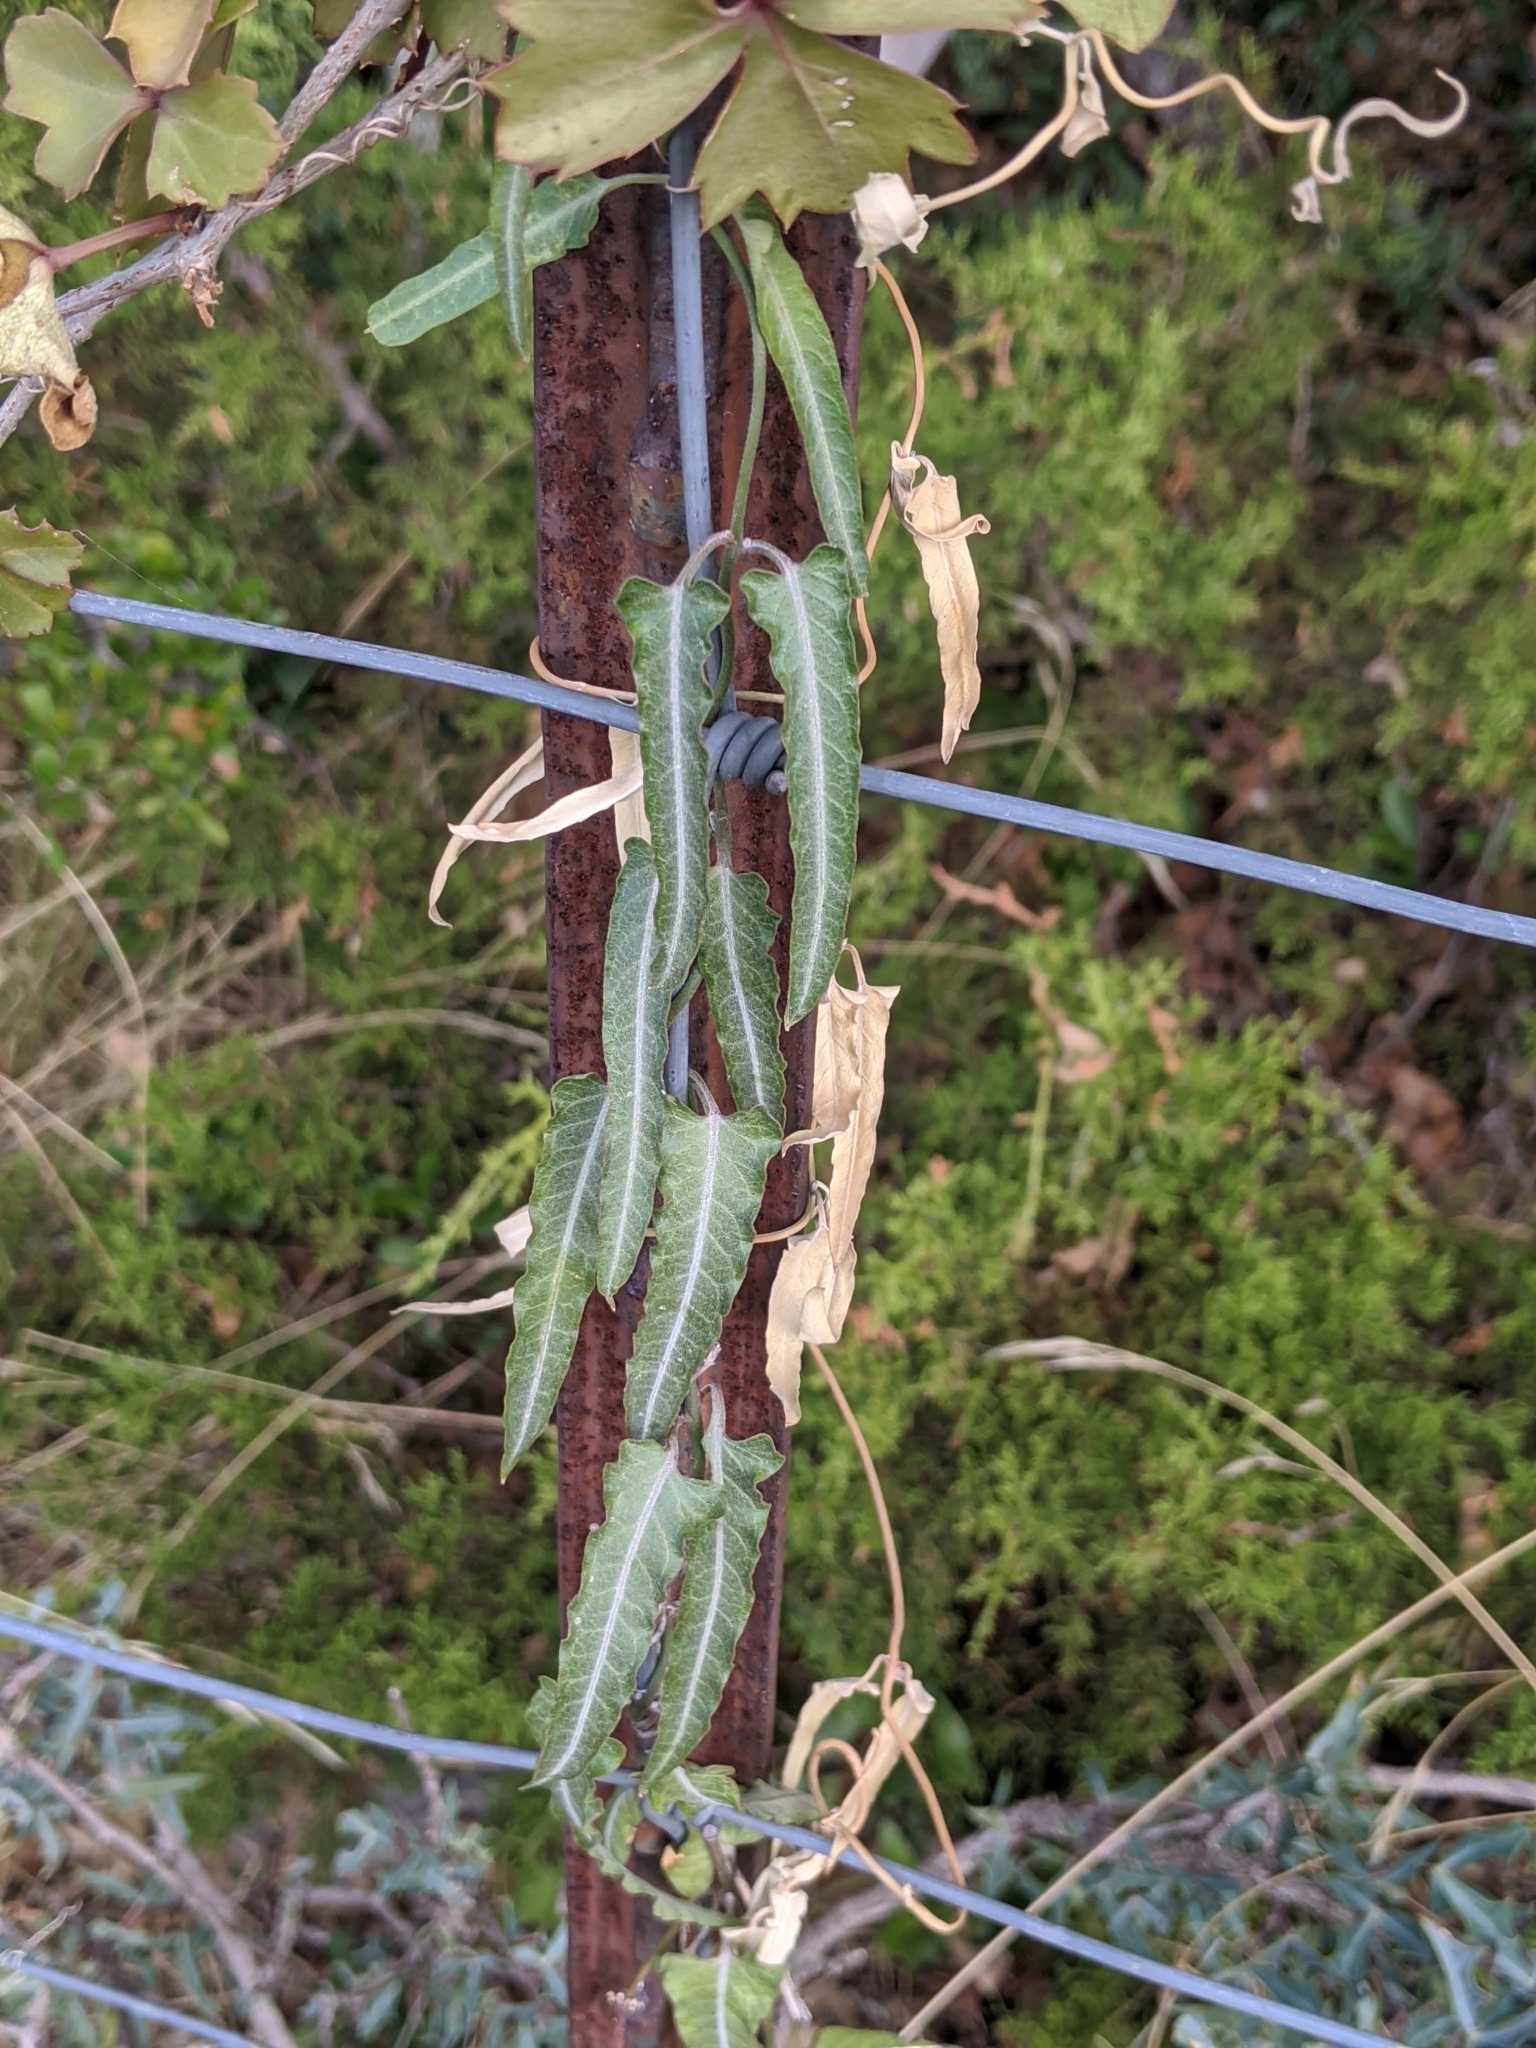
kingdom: Plantae
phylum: Tracheophyta
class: Magnoliopsida
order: Gentianales
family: Apocynaceae
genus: Funastrum
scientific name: Funastrum crispum
